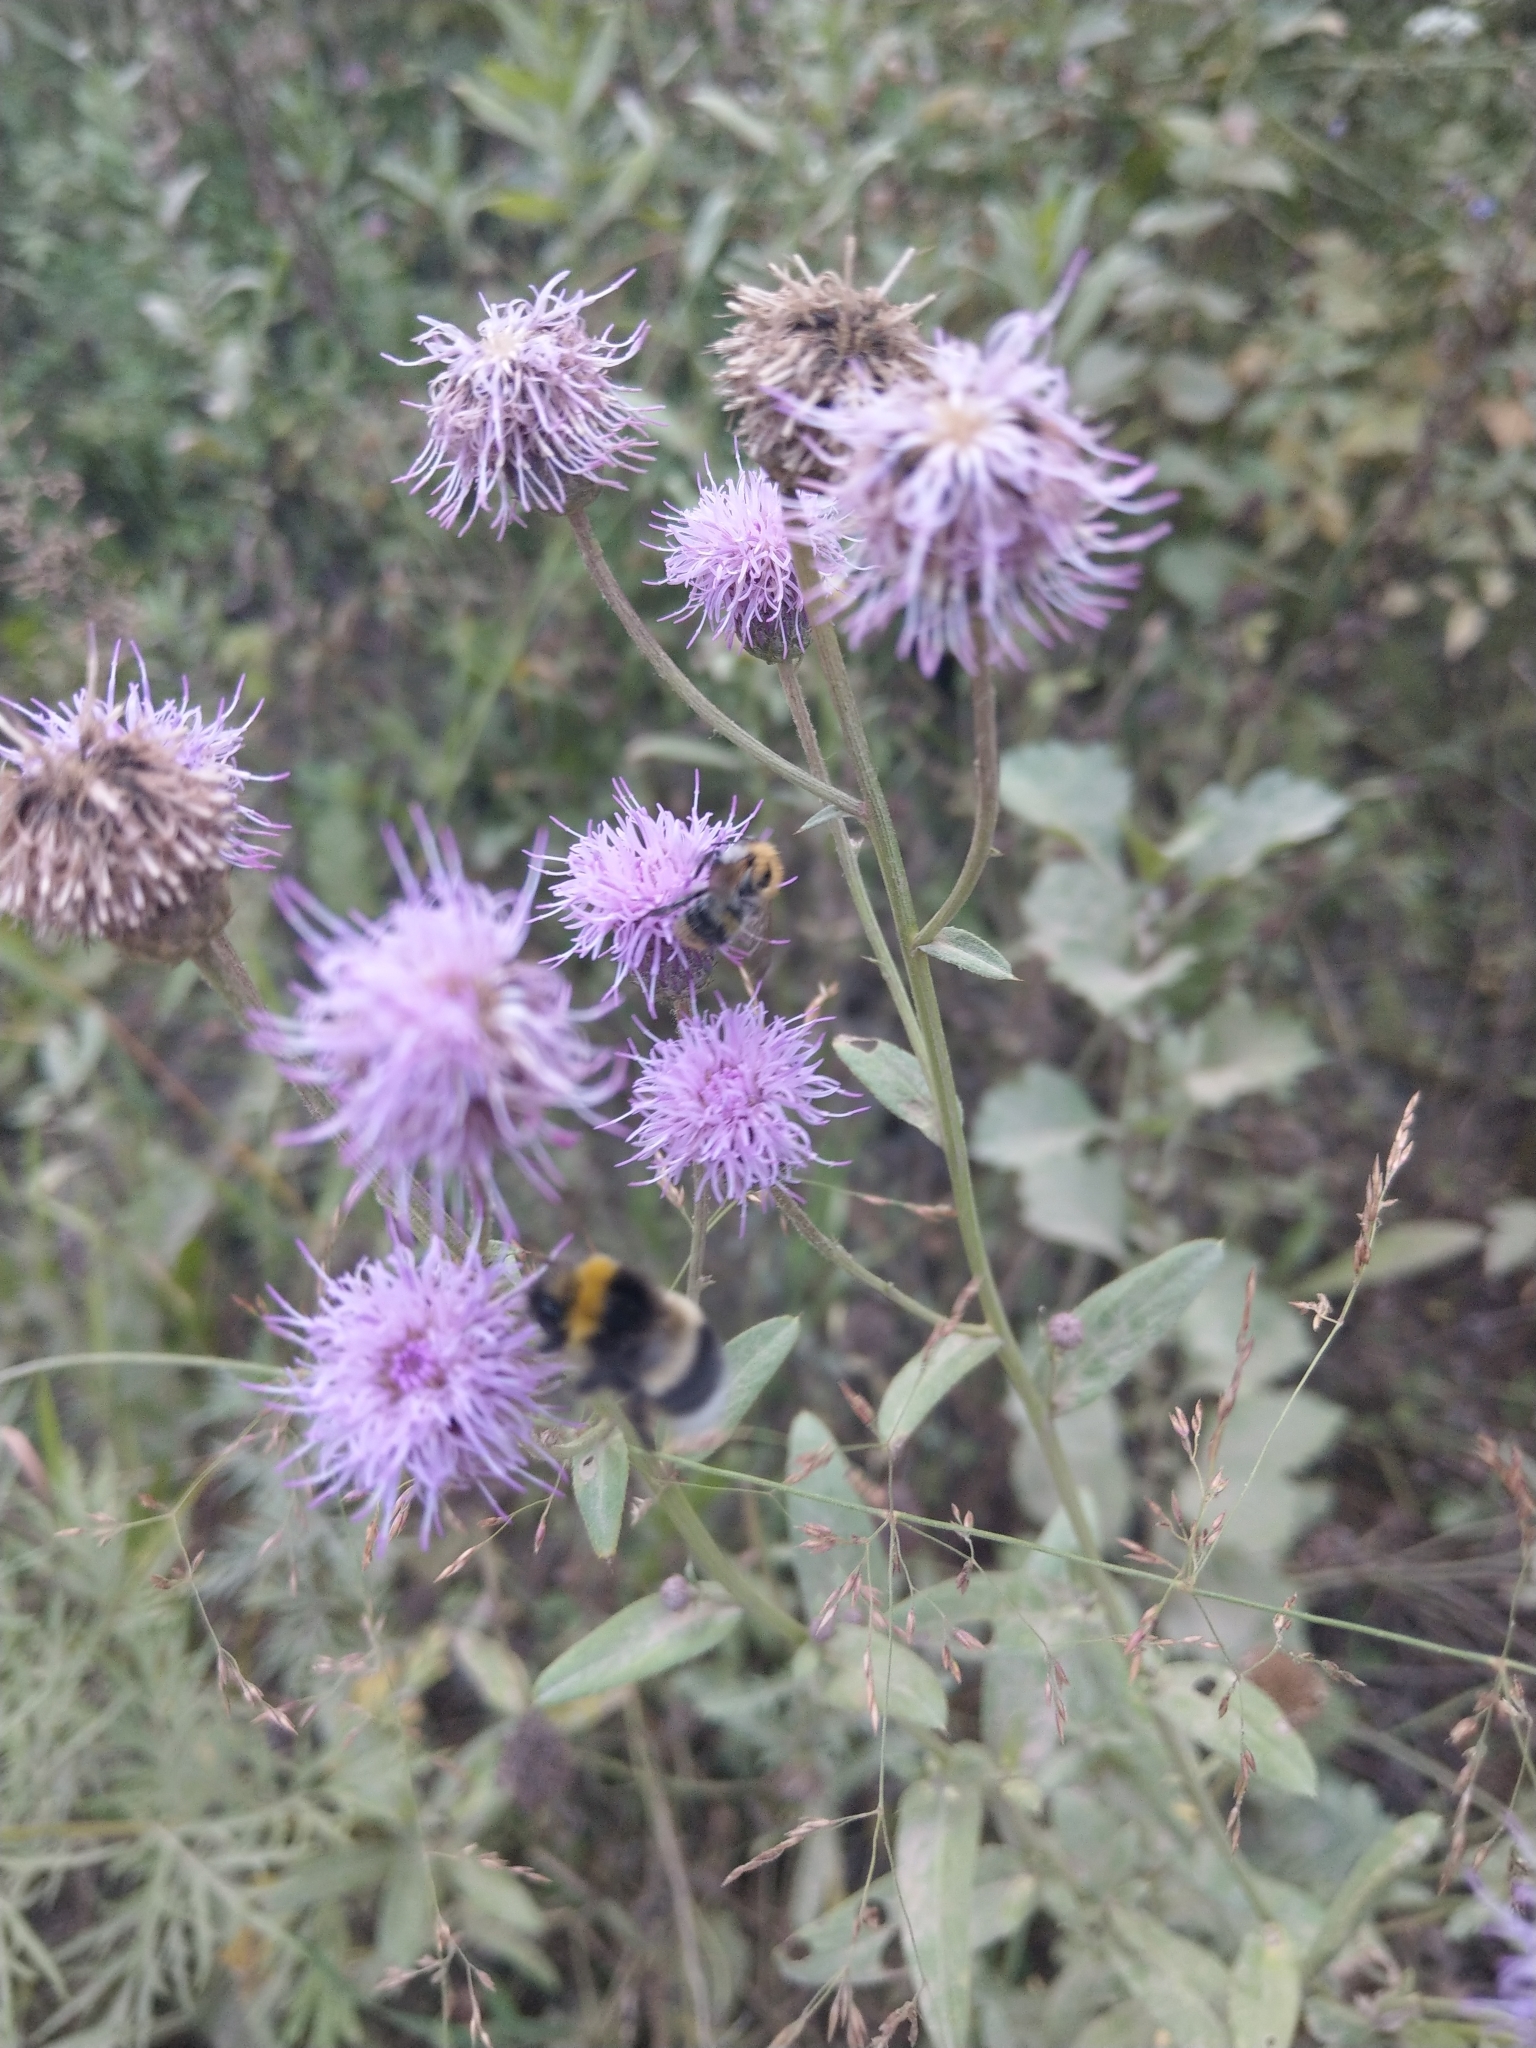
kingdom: Plantae
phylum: Tracheophyta
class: Magnoliopsida
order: Asterales
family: Asteraceae
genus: Cirsium
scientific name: Cirsium arvense
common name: Creeping thistle
